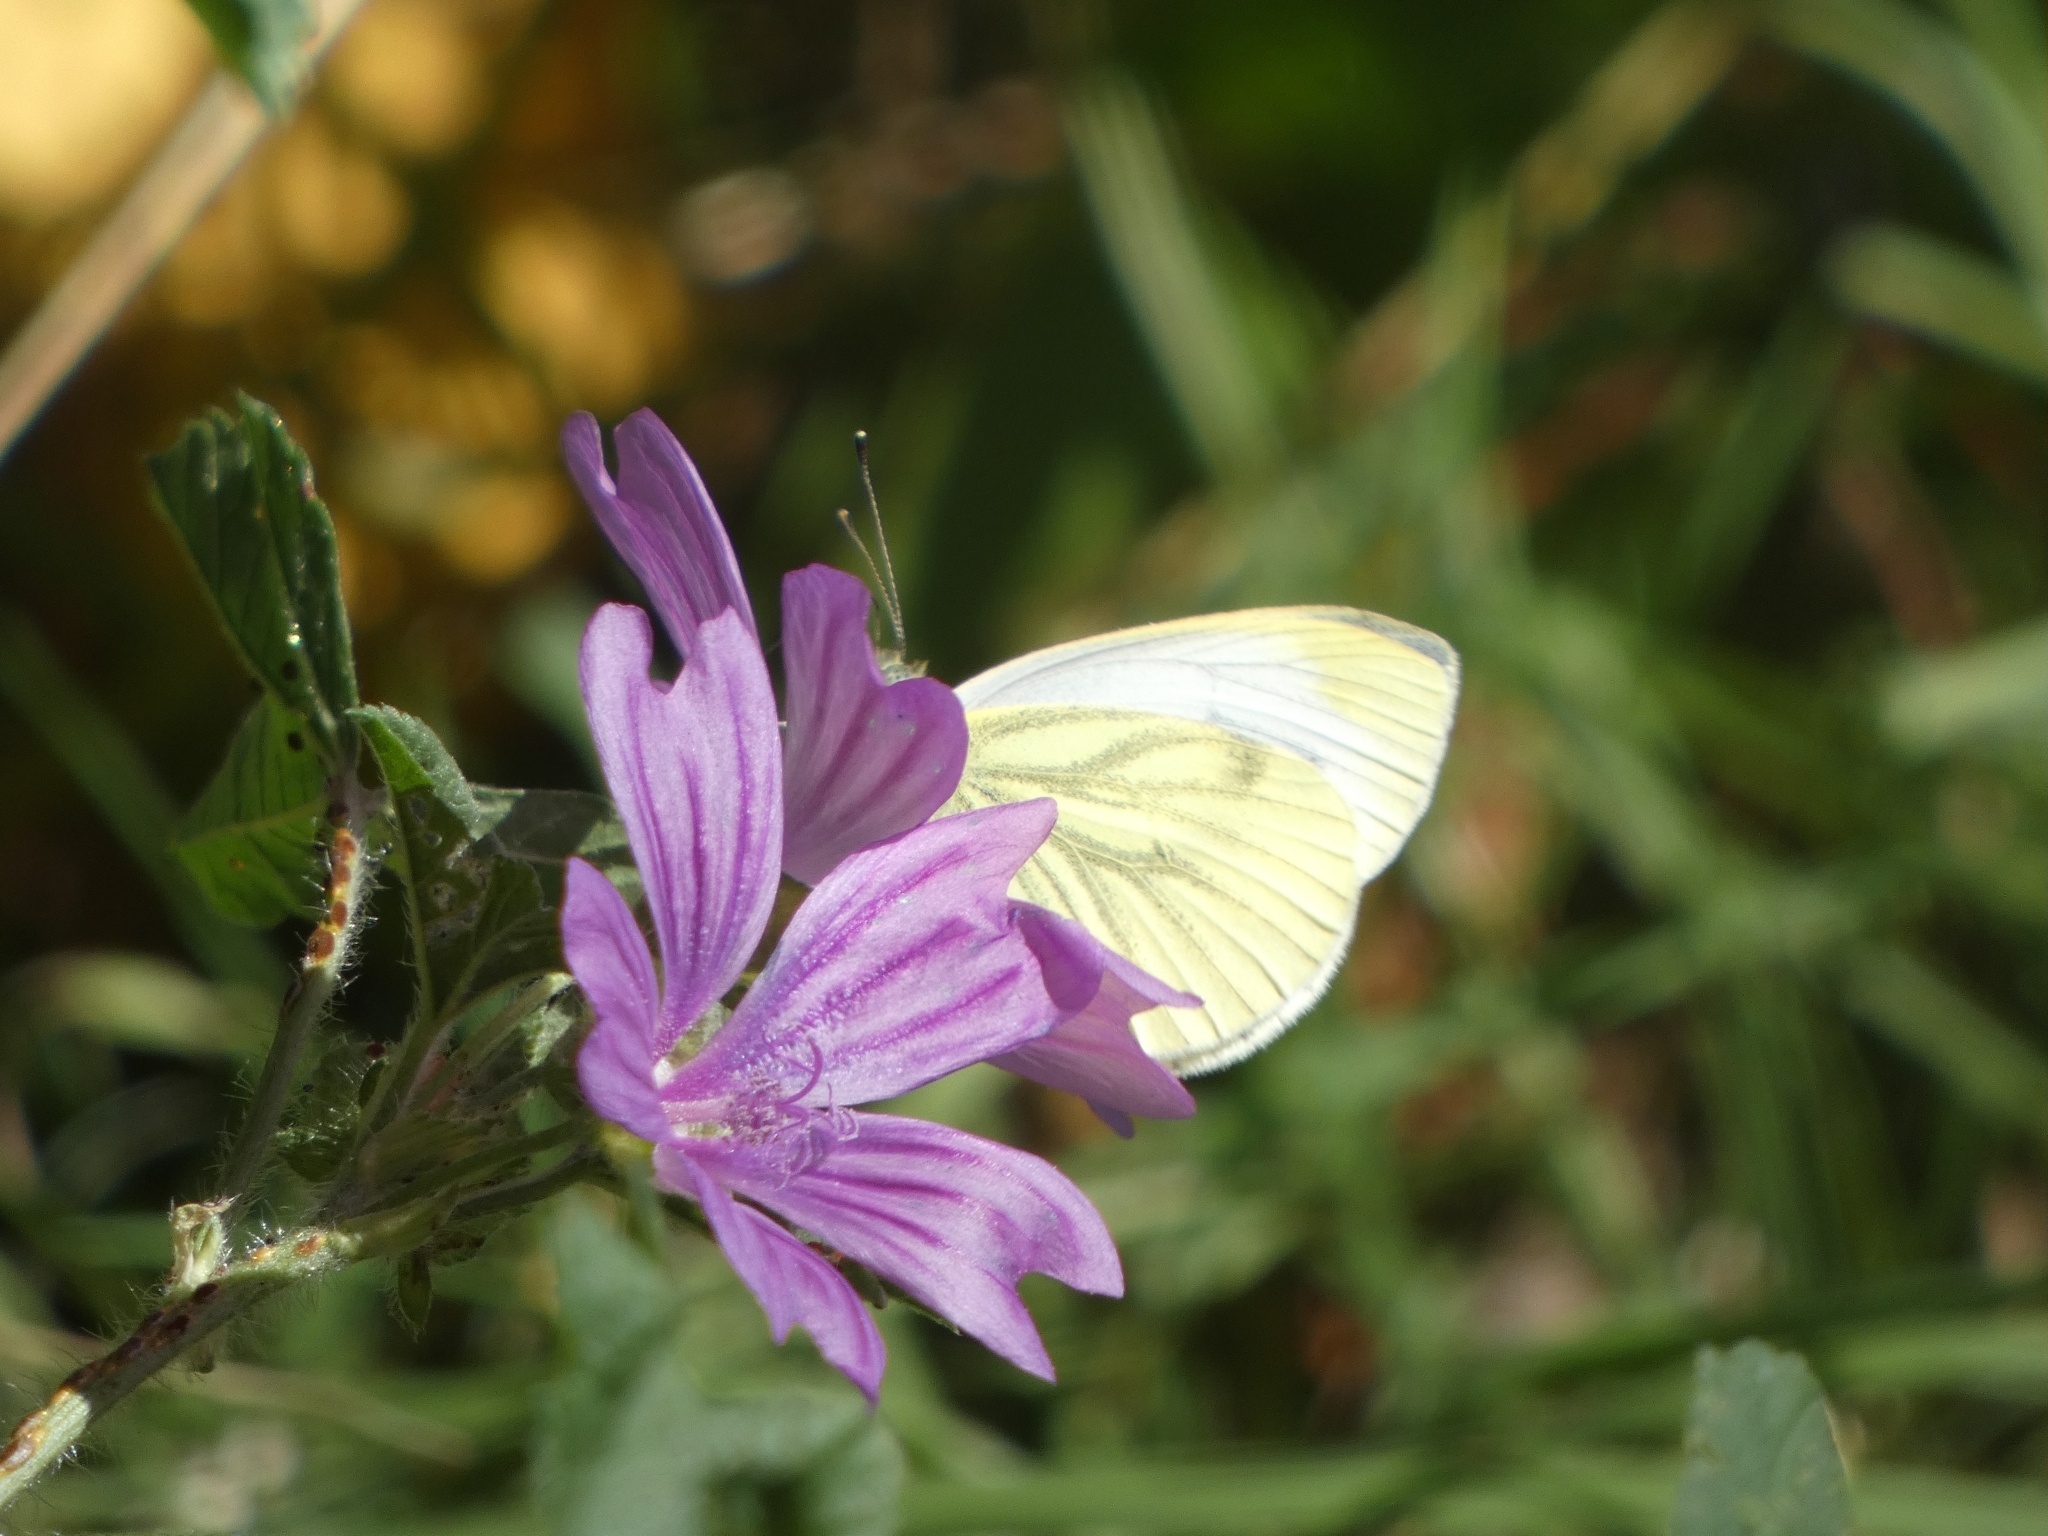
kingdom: Animalia
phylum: Arthropoda
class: Insecta
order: Lepidoptera
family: Pieridae
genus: Pieris
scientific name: Pieris napi
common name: Green-veined white
